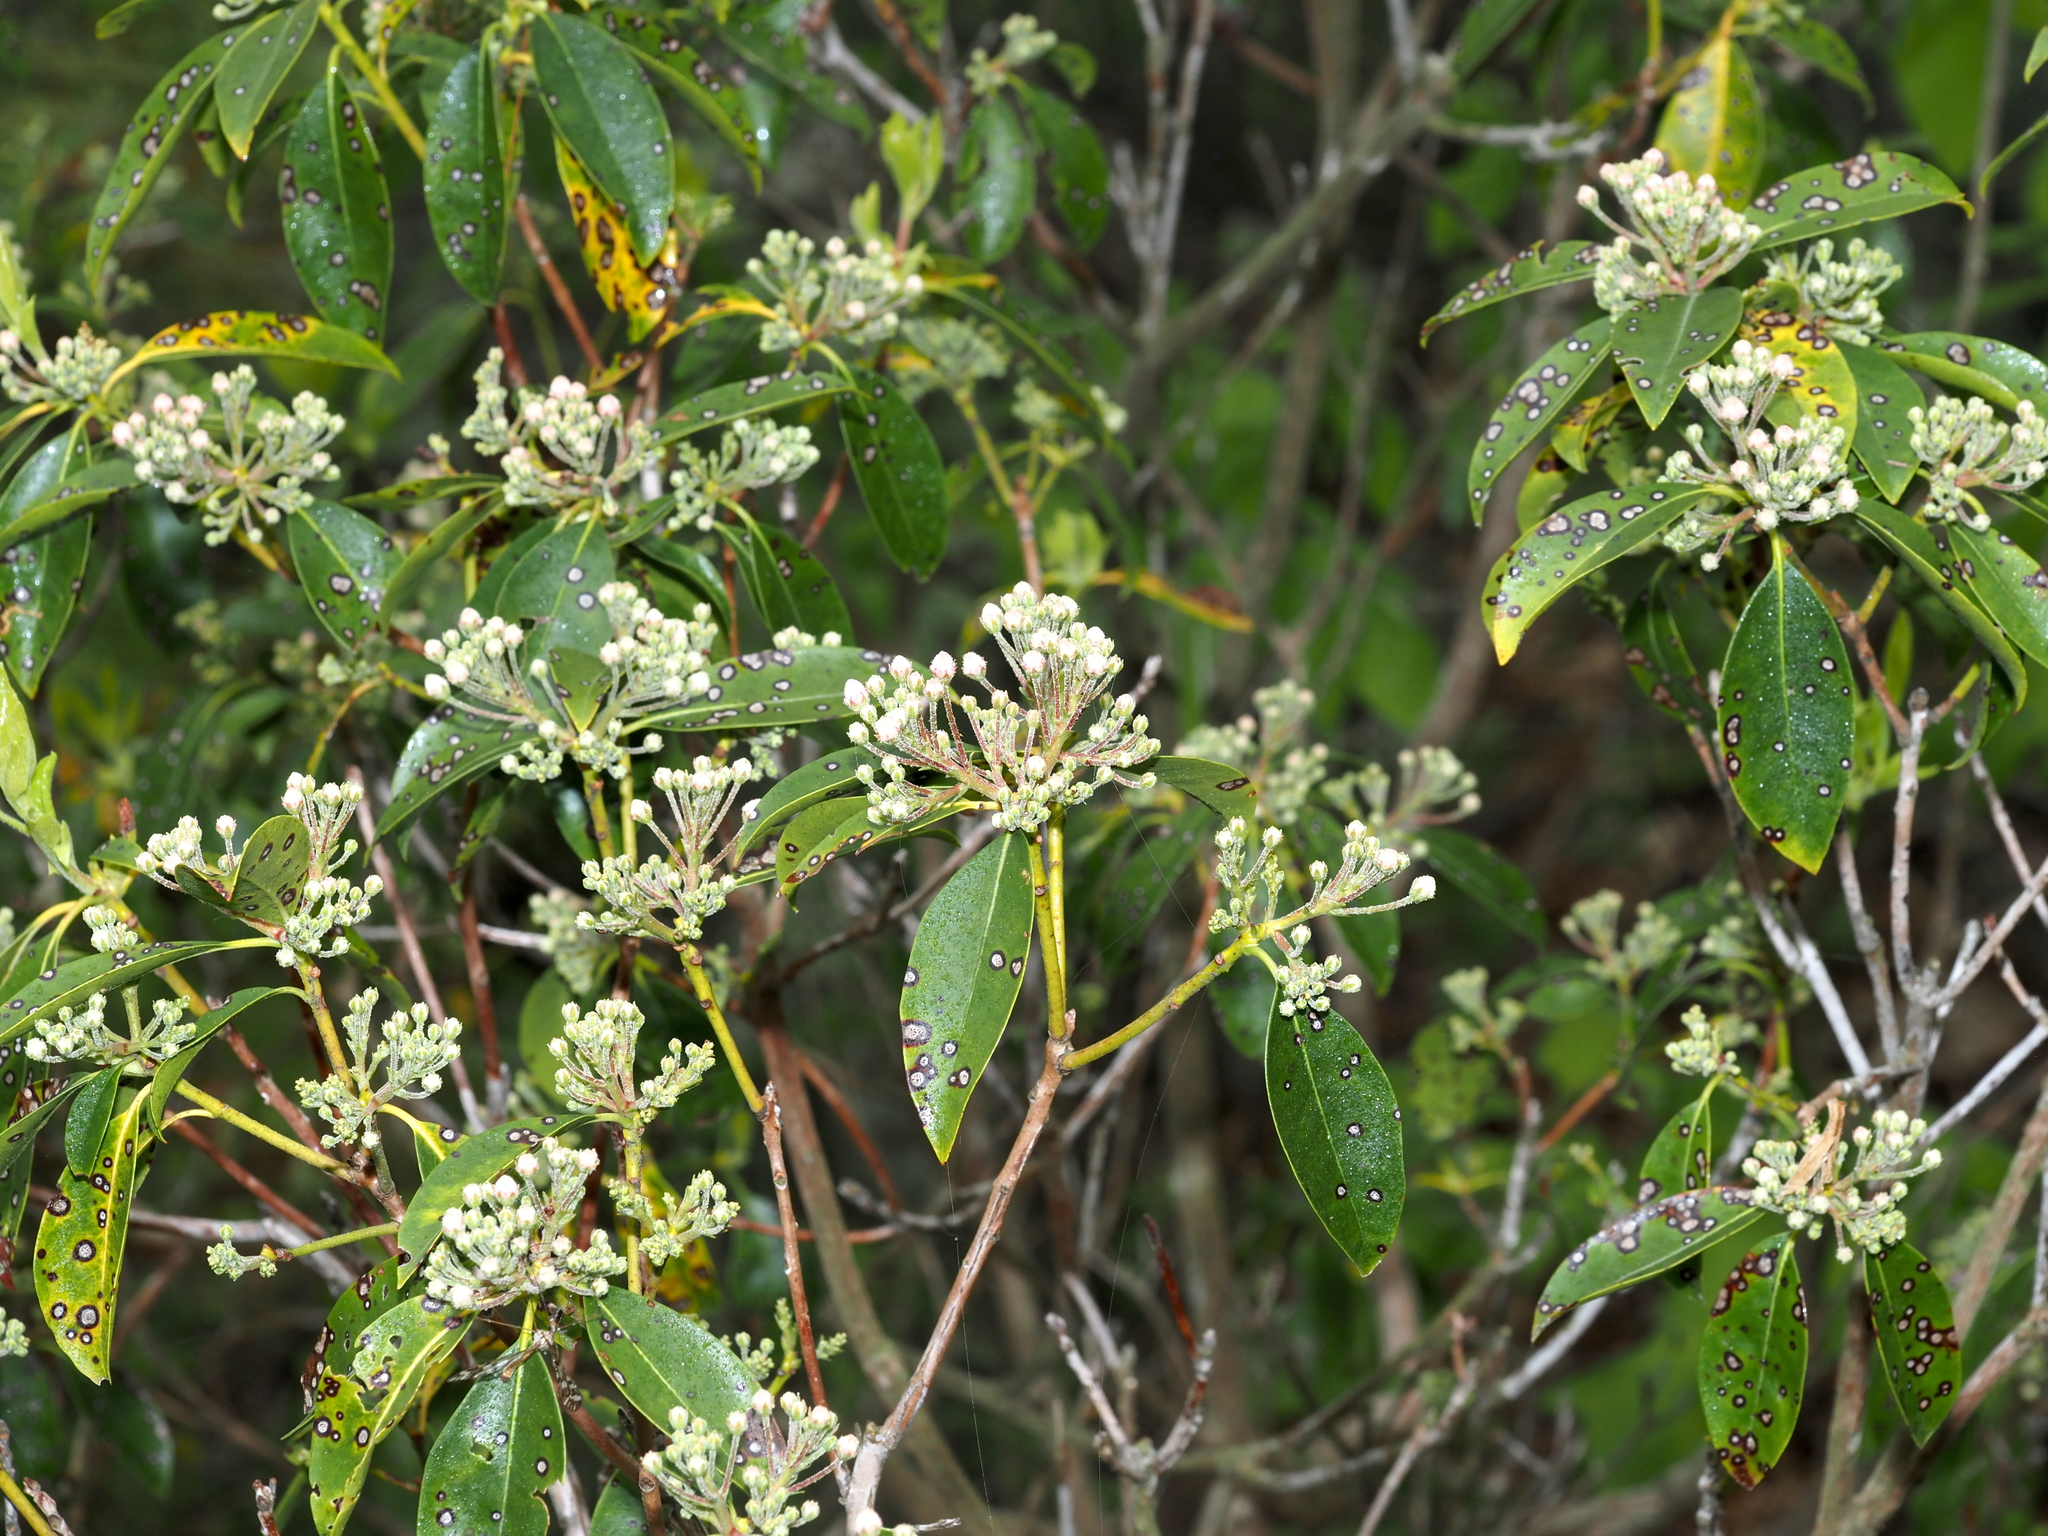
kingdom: Plantae
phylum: Tracheophyta
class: Magnoliopsida
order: Ericales
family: Ericaceae
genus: Kalmia
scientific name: Kalmia latifolia
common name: Mountain-laurel
